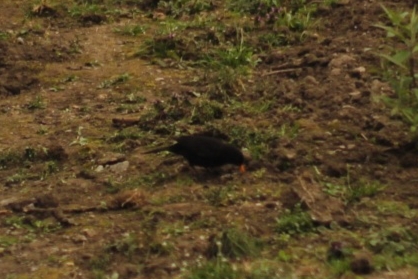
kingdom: Animalia
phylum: Chordata
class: Aves
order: Passeriformes
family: Turdidae
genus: Turdus
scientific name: Turdus merula
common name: Common blackbird
